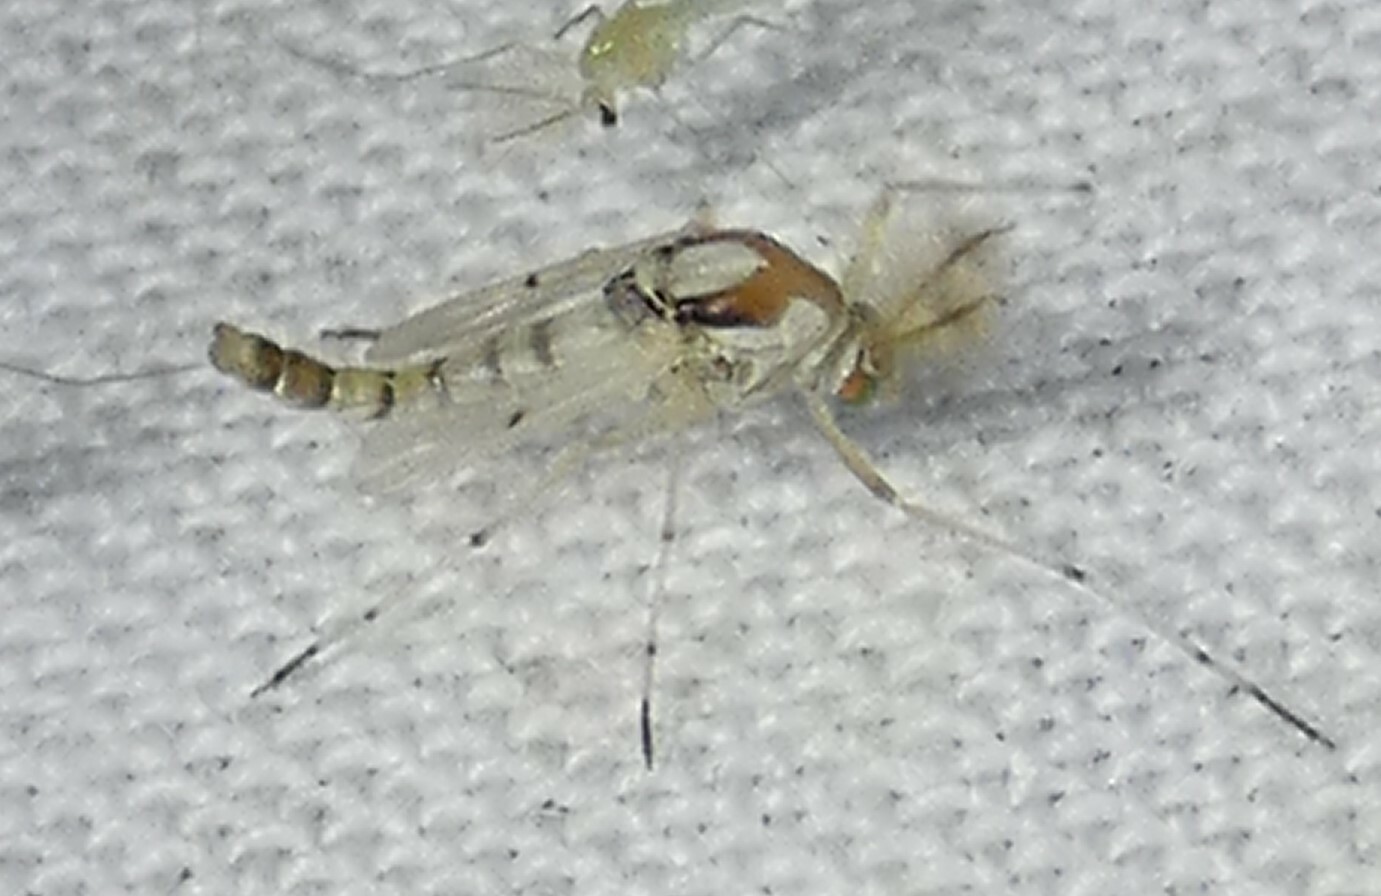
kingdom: Animalia
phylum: Arthropoda
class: Insecta
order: Diptera
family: Chironomidae
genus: Coelotanypus
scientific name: Coelotanypus concinnus
